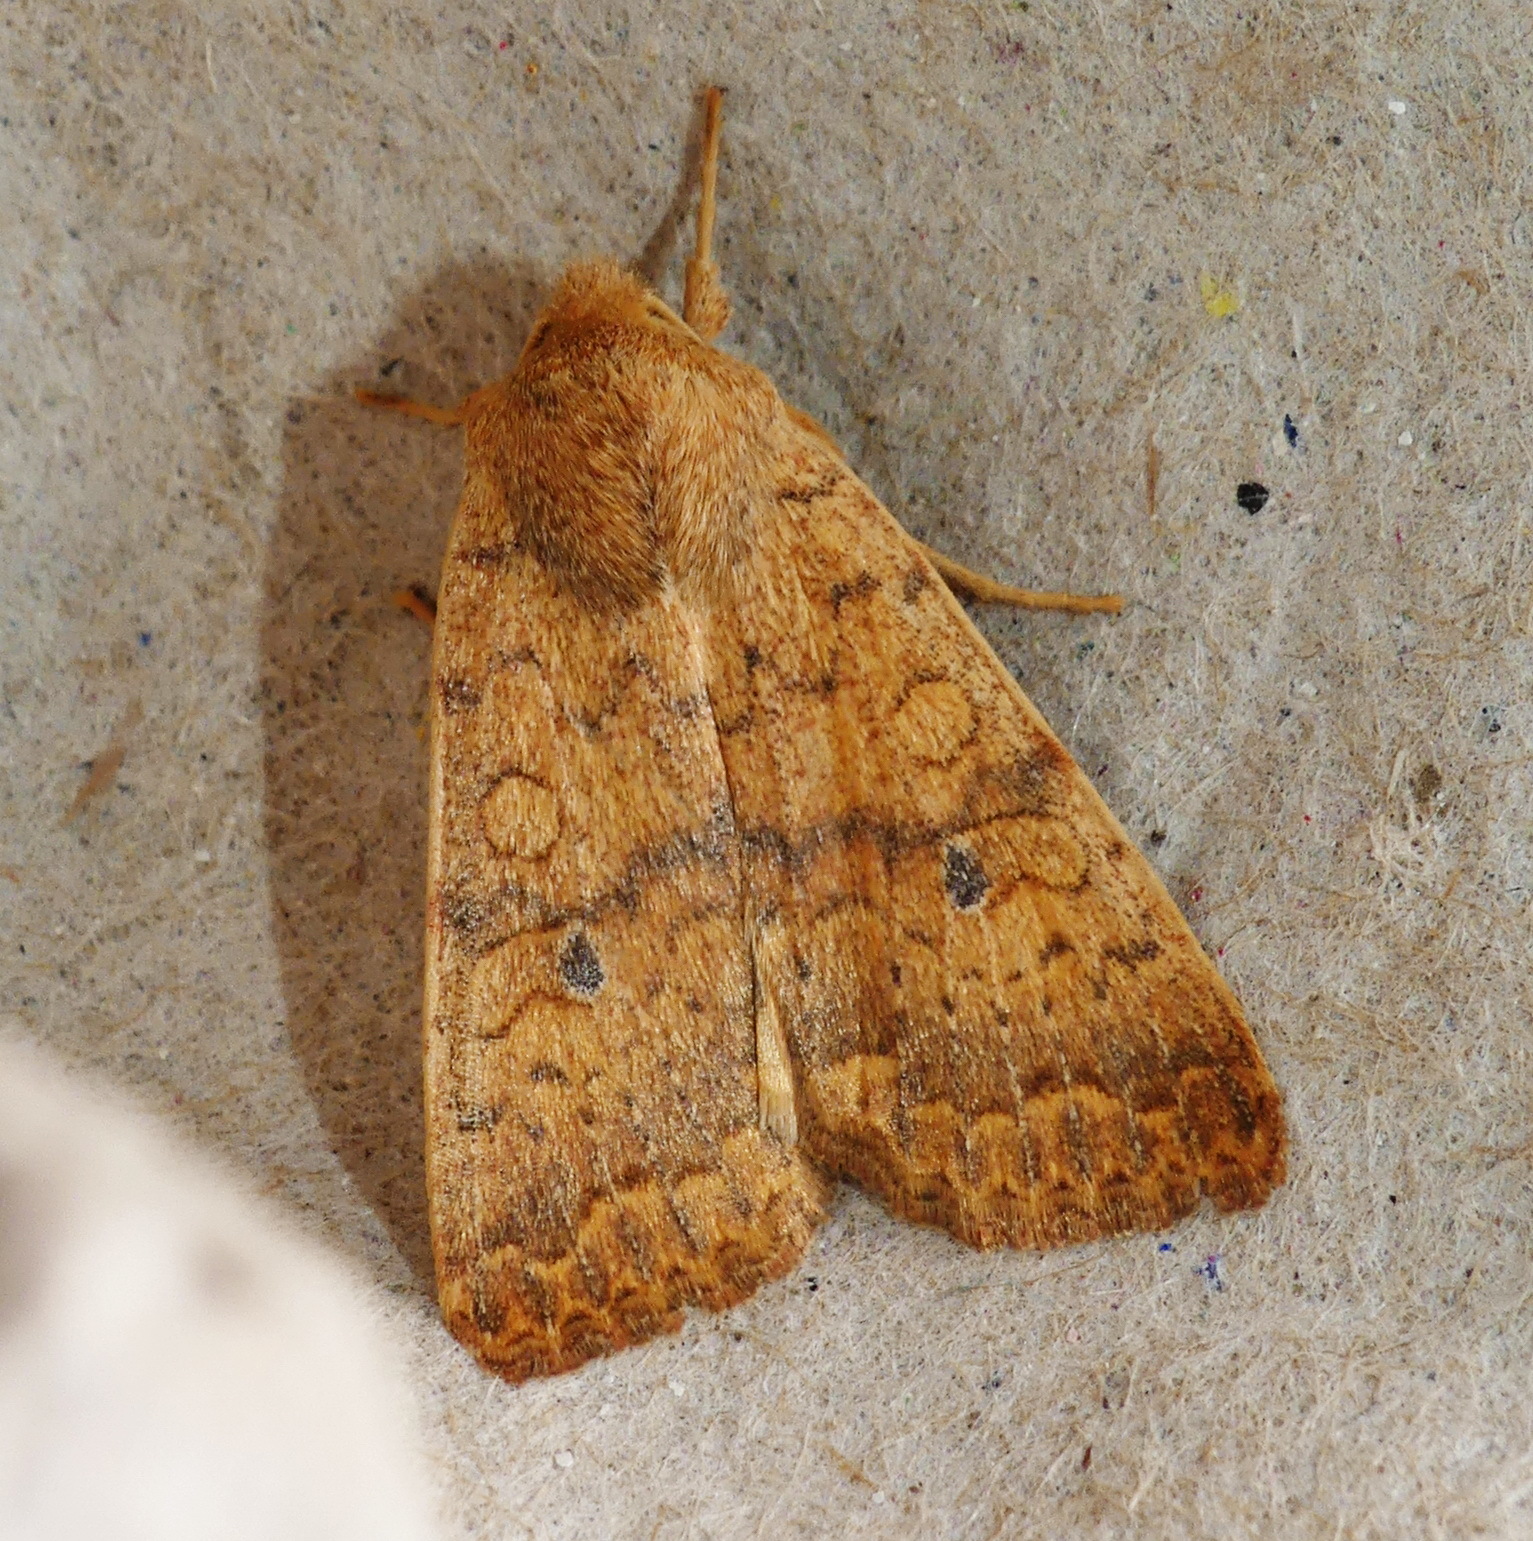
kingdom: Animalia
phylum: Arthropoda
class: Insecta
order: Lepidoptera
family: Noctuidae
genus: Agrochola
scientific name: Agrochola bicolorago
